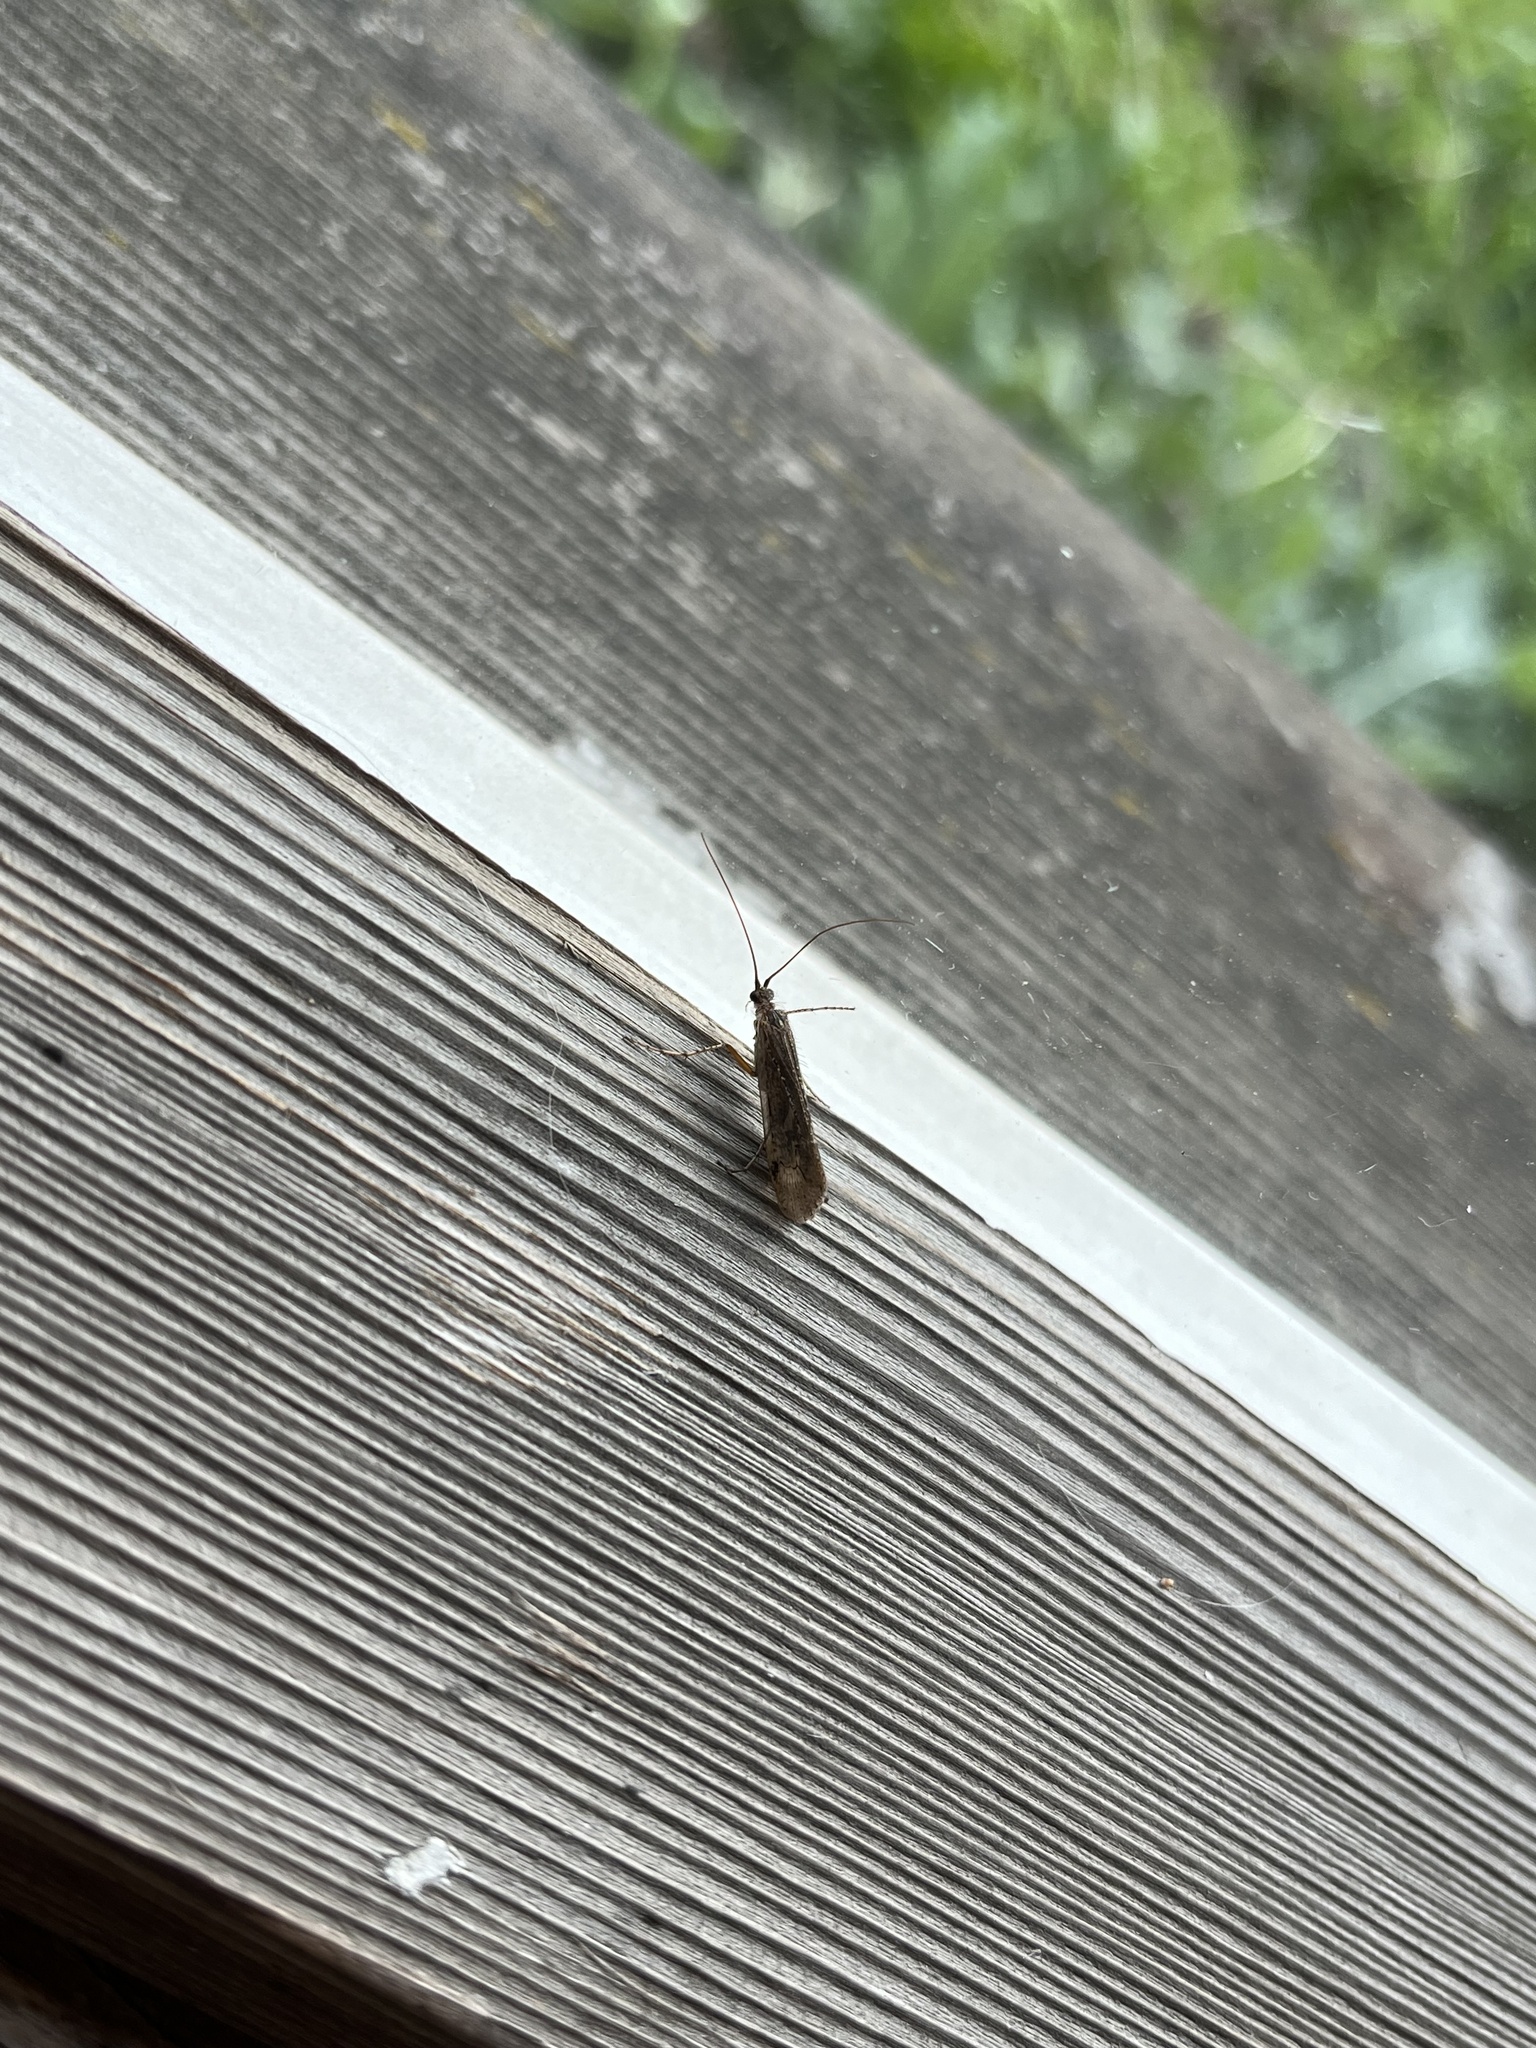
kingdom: Animalia
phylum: Arthropoda
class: Insecta
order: Trichoptera
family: Limnephilidae
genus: Limnephilus
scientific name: Limnephilus affinis
